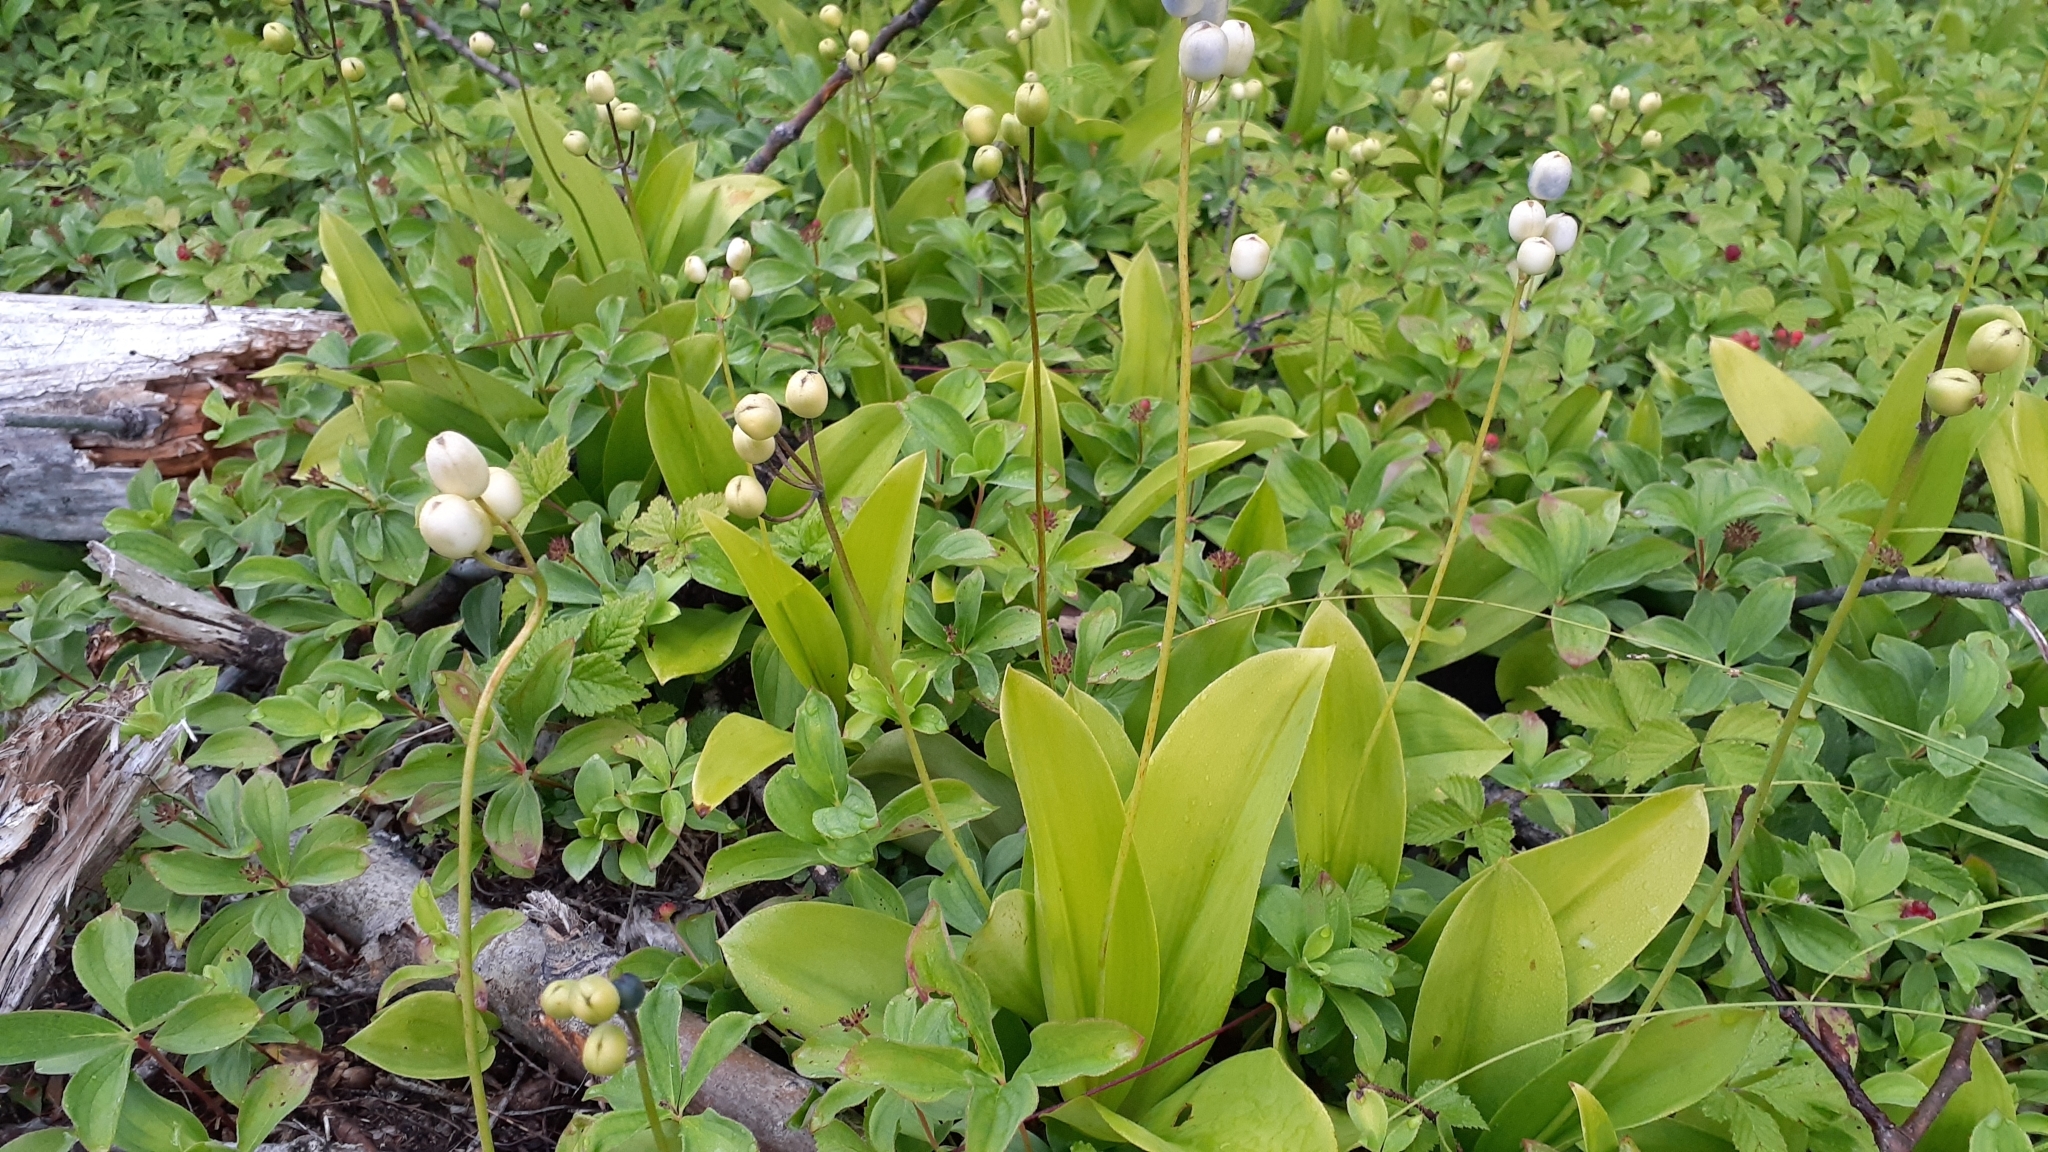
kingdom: Plantae
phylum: Tracheophyta
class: Liliopsida
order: Liliales
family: Liliaceae
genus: Clintonia
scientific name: Clintonia borealis
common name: Yellow clintonia
